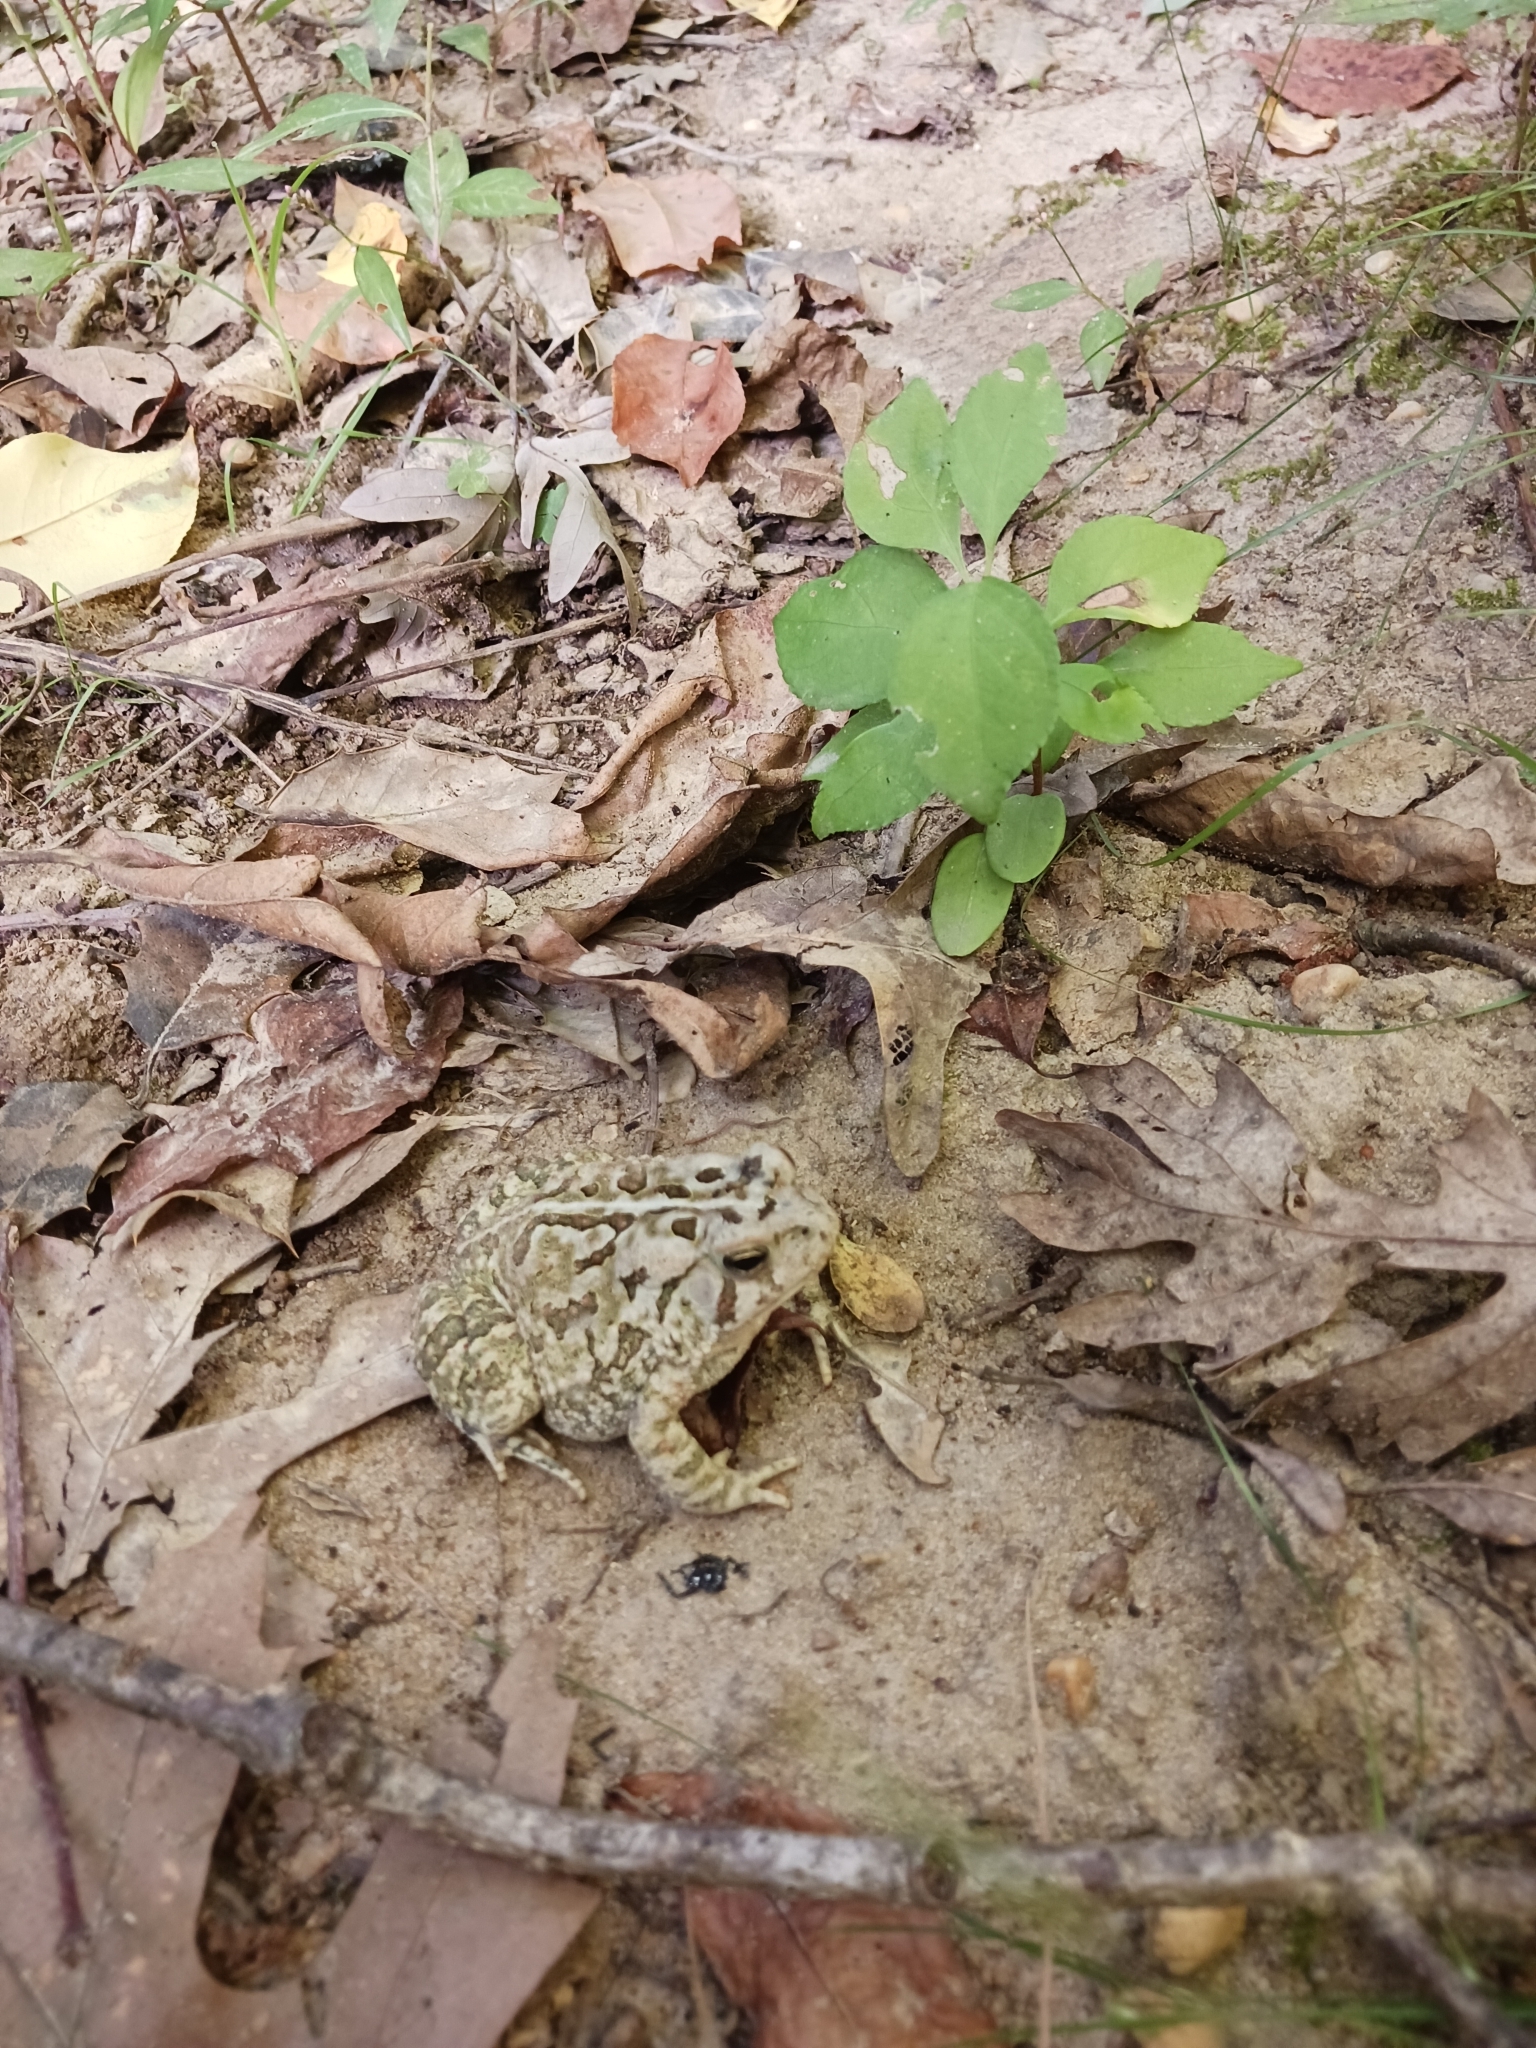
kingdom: Animalia
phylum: Chordata
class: Amphibia
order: Anura
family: Bufonidae
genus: Anaxyrus
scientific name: Anaxyrus fowleri
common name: Fowler's toad
